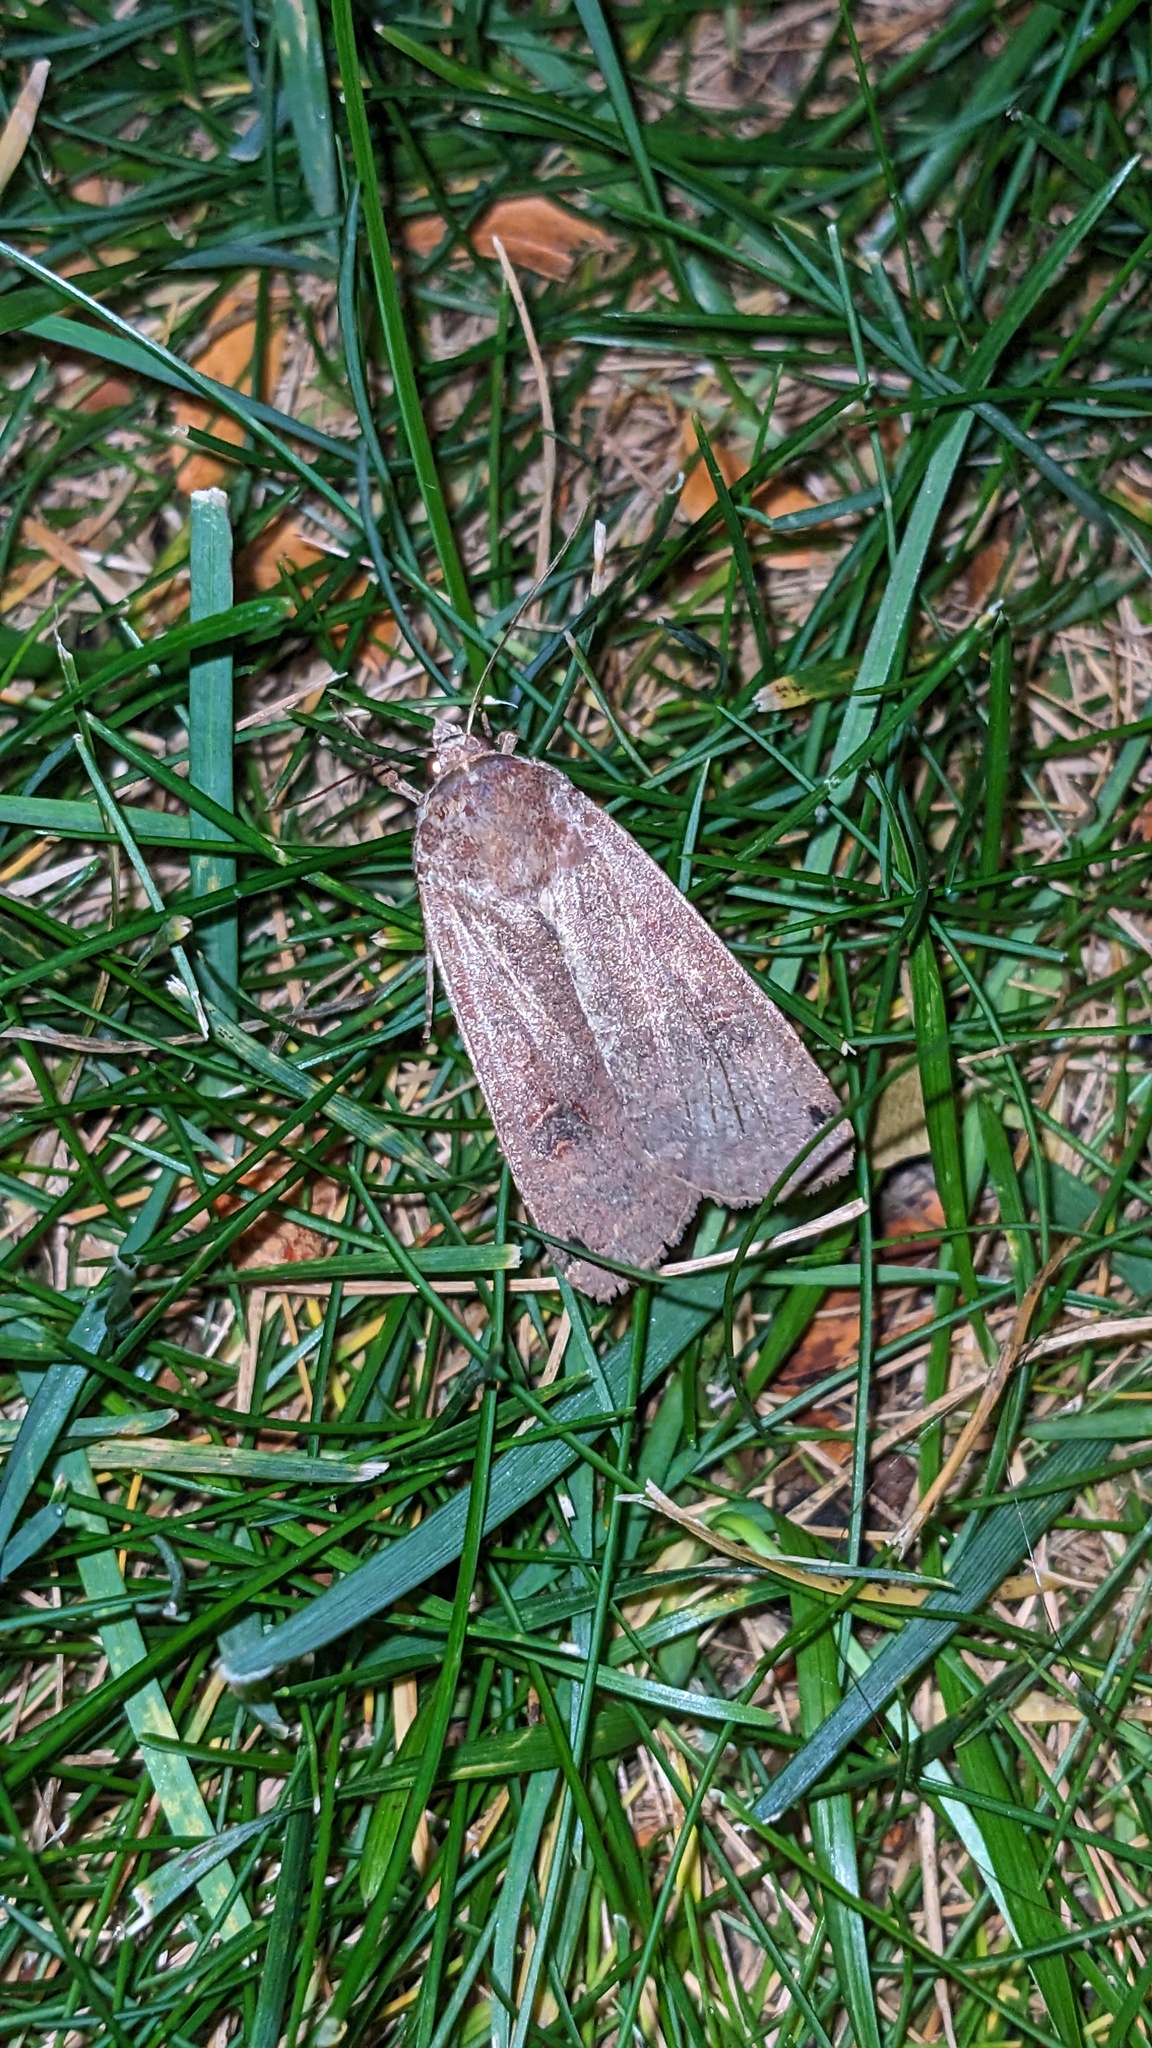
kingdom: Animalia
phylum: Arthropoda
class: Insecta
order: Lepidoptera
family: Noctuidae
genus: Noctua
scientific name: Noctua pronuba
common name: Large yellow underwing
